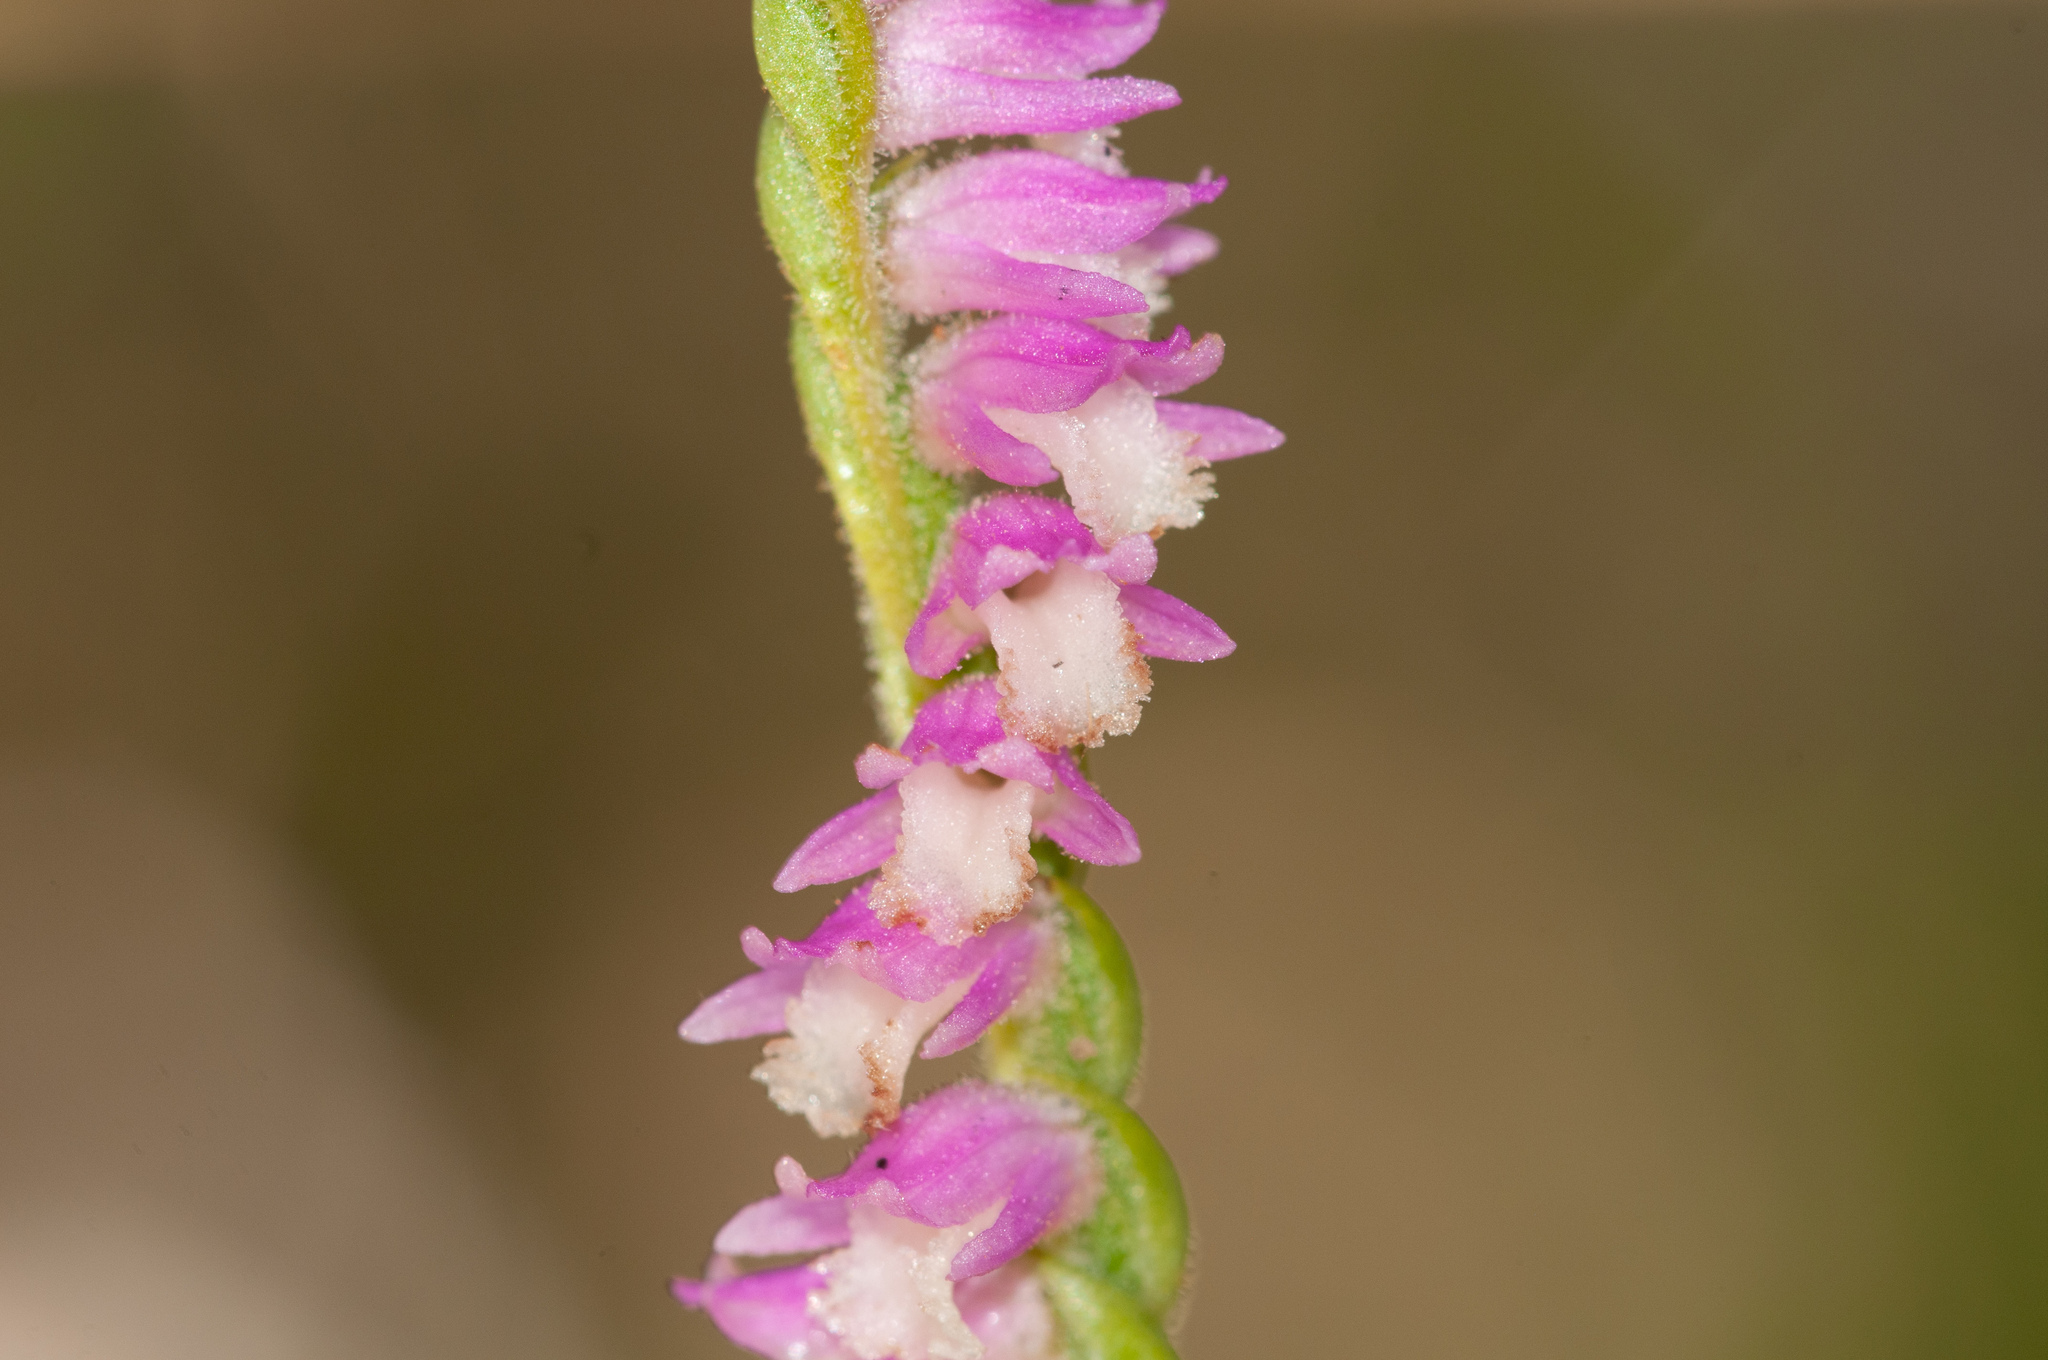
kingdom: Plantae
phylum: Tracheophyta
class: Liliopsida
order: Asparagales
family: Orchidaceae
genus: Spiranthes
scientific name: Spiranthes australis
